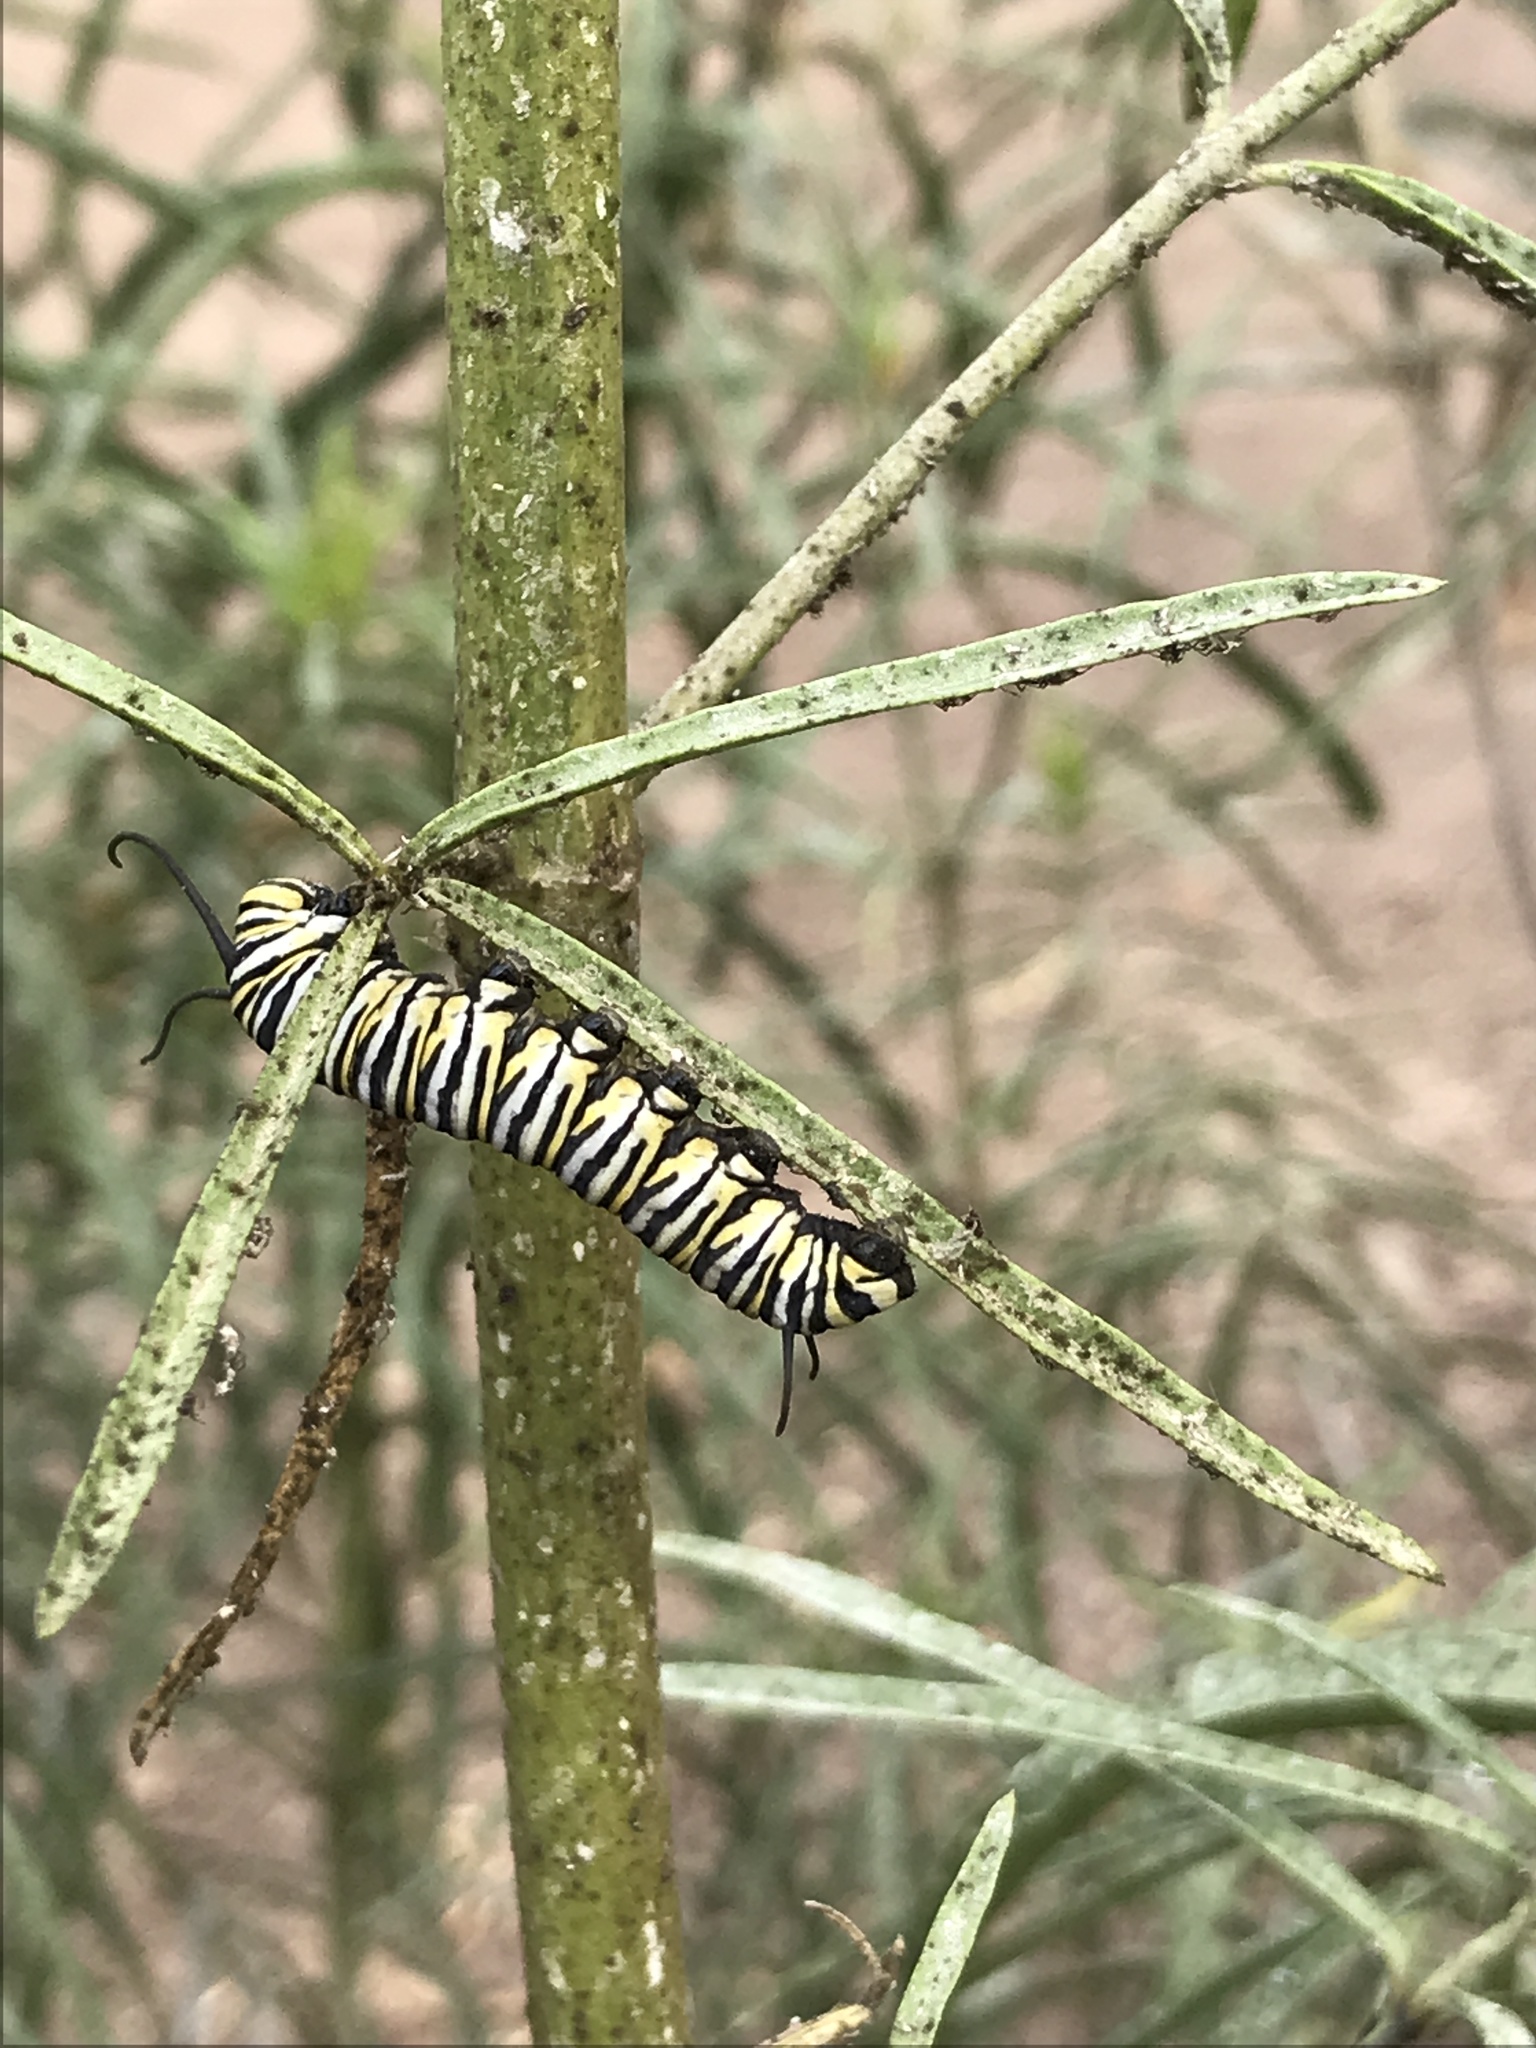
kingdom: Animalia
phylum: Arthropoda
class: Insecta
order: Lepidoptera
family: Nymphalidae
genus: Danaus
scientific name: Danaus plexippus
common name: Monarch
